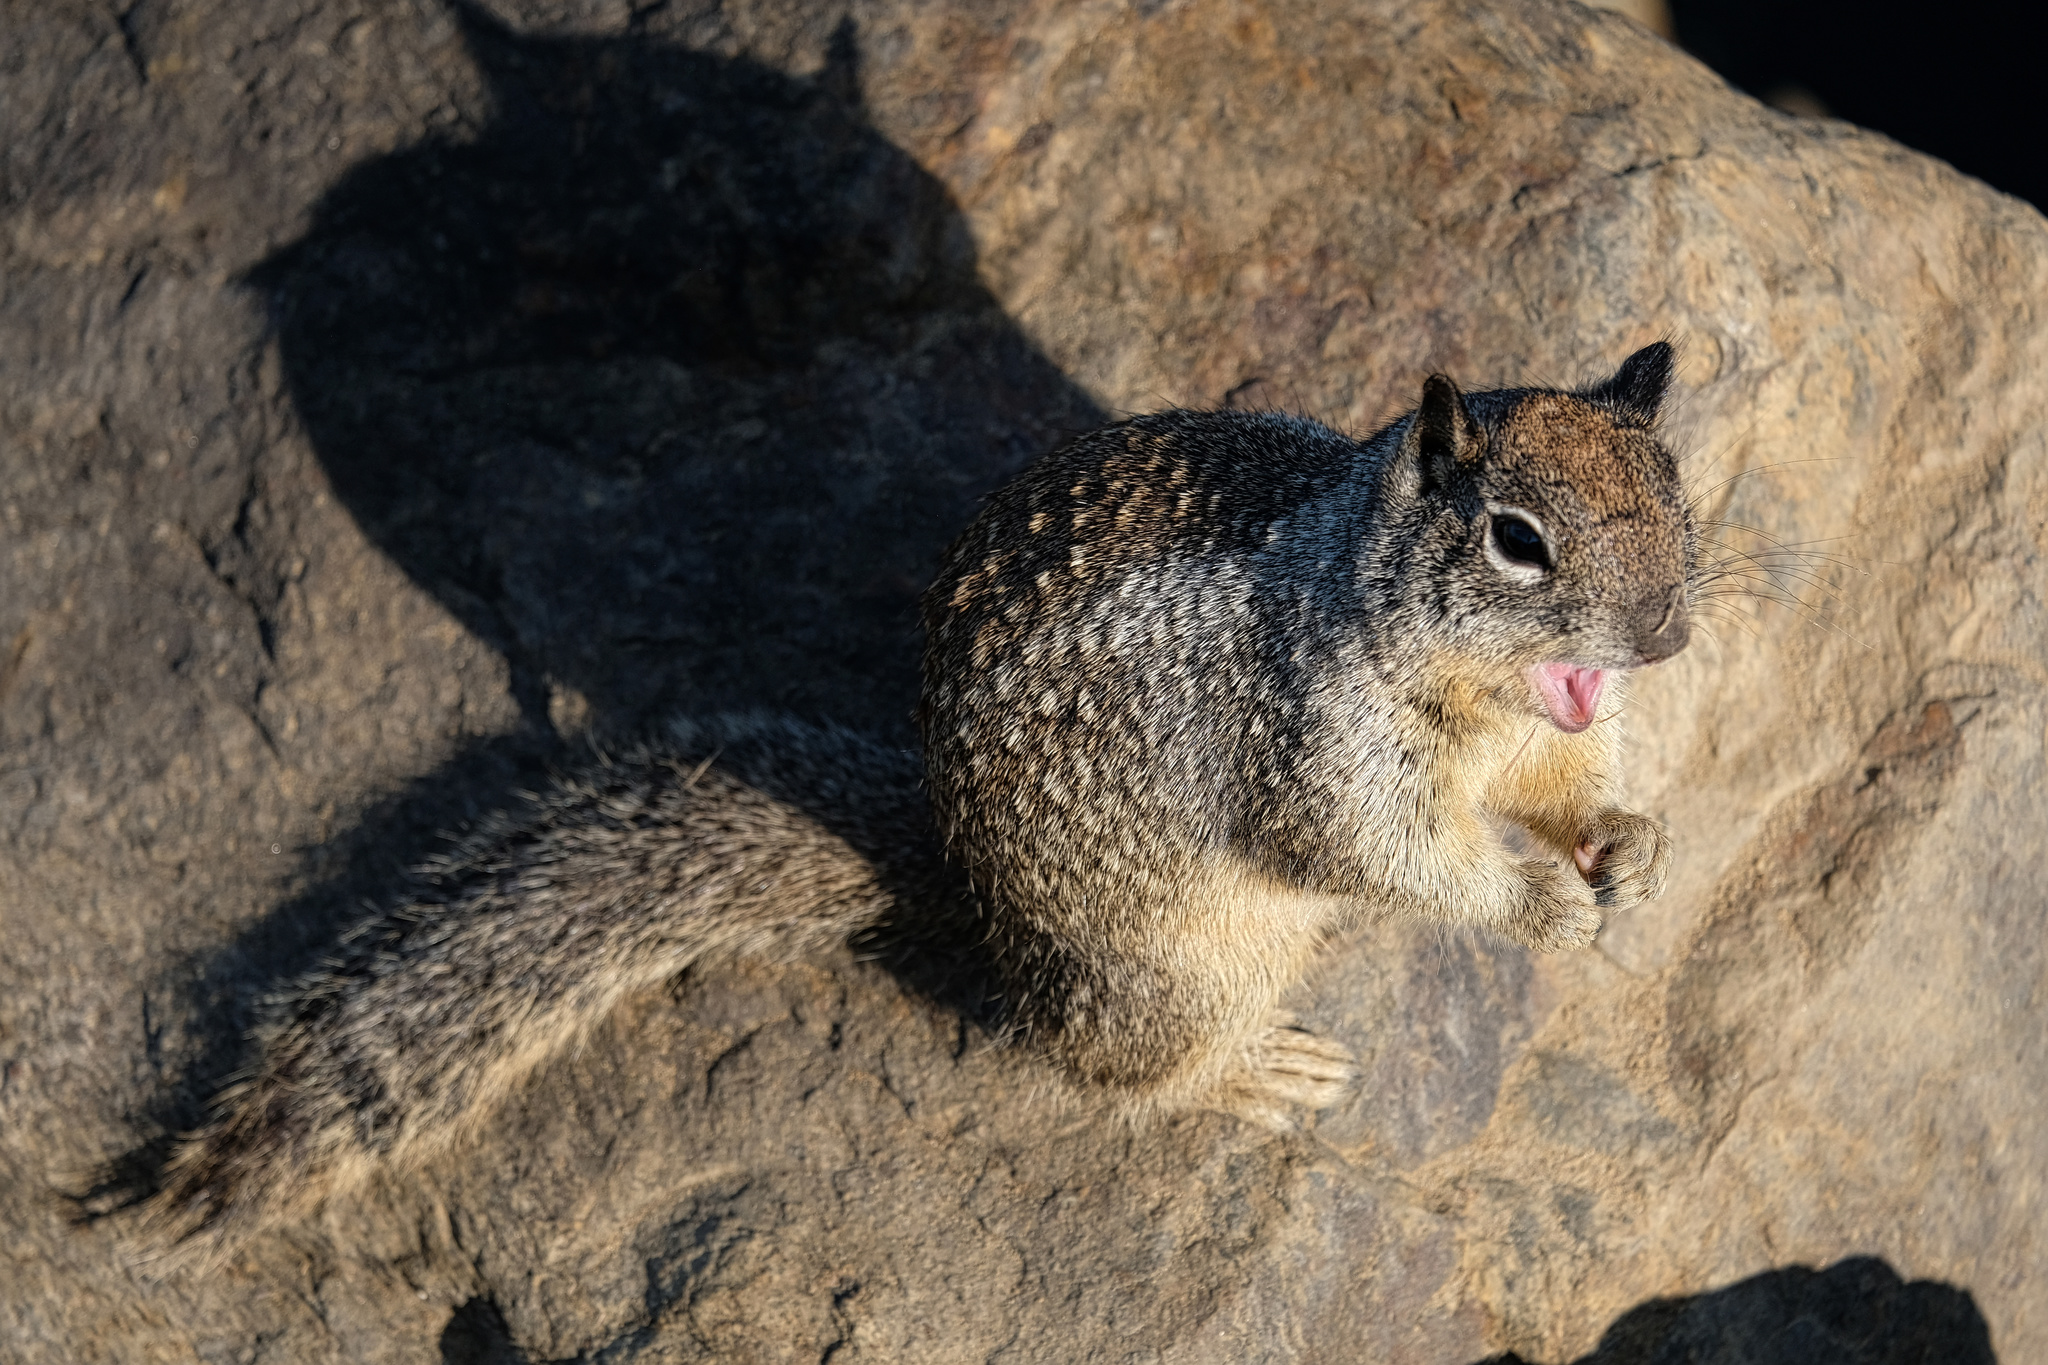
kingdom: Animalia
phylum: Chordata
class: Mammalia
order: Rodentia
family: Sciuridae
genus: Otospermophilus
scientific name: Otospermophilus beecheyi
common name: California ground squirrel
